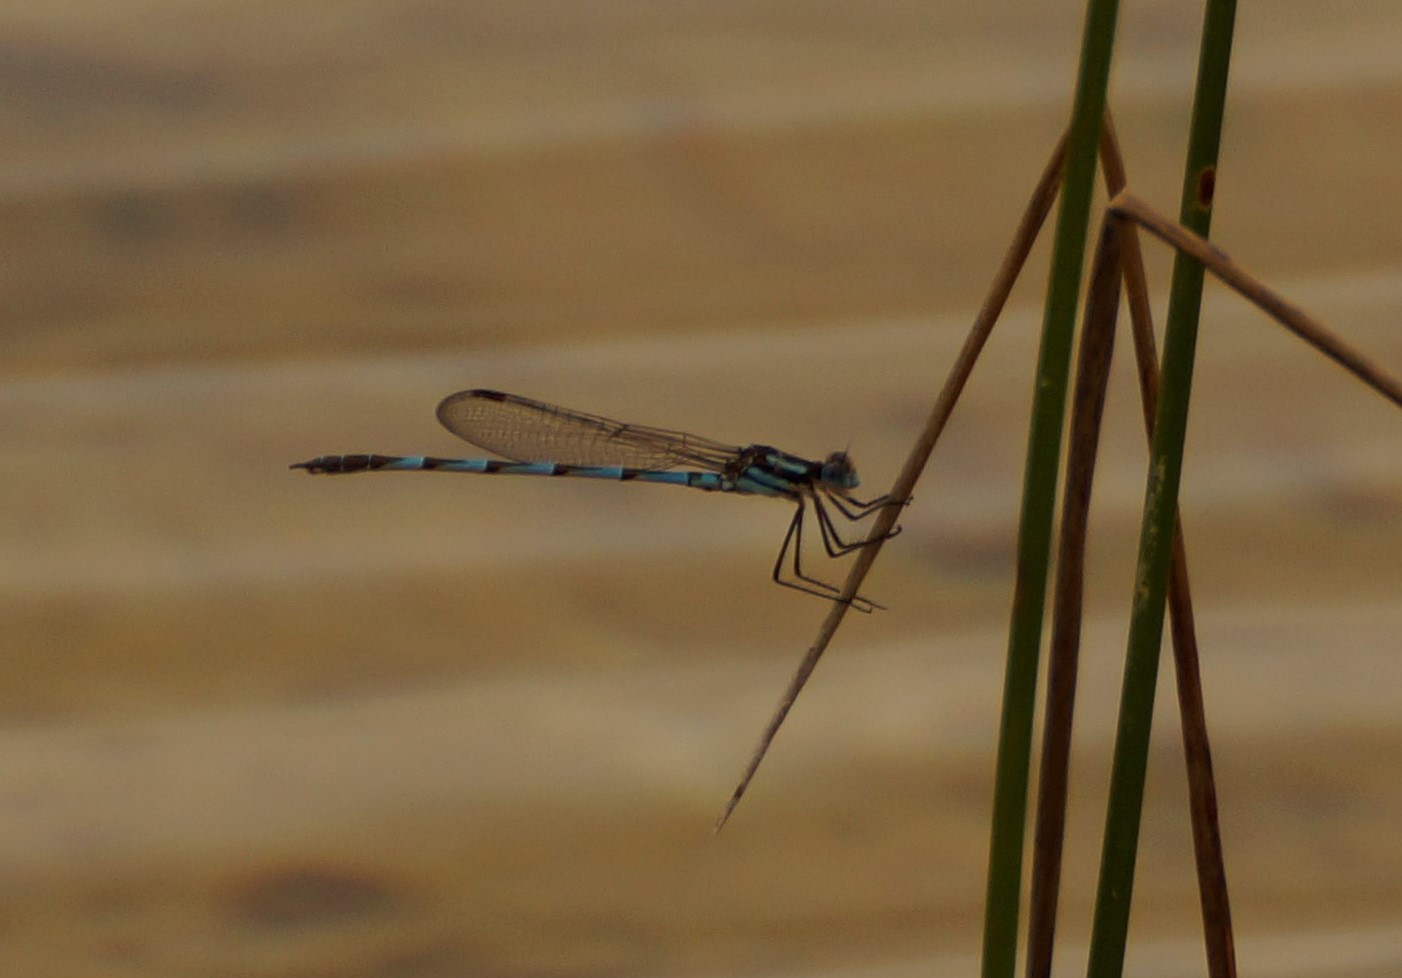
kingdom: Animalia
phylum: Arthropoda
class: Insecta
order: Odonata
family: Lestidae
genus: Austrolestes
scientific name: Austrolestes annulosus
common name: Blue ringtail
